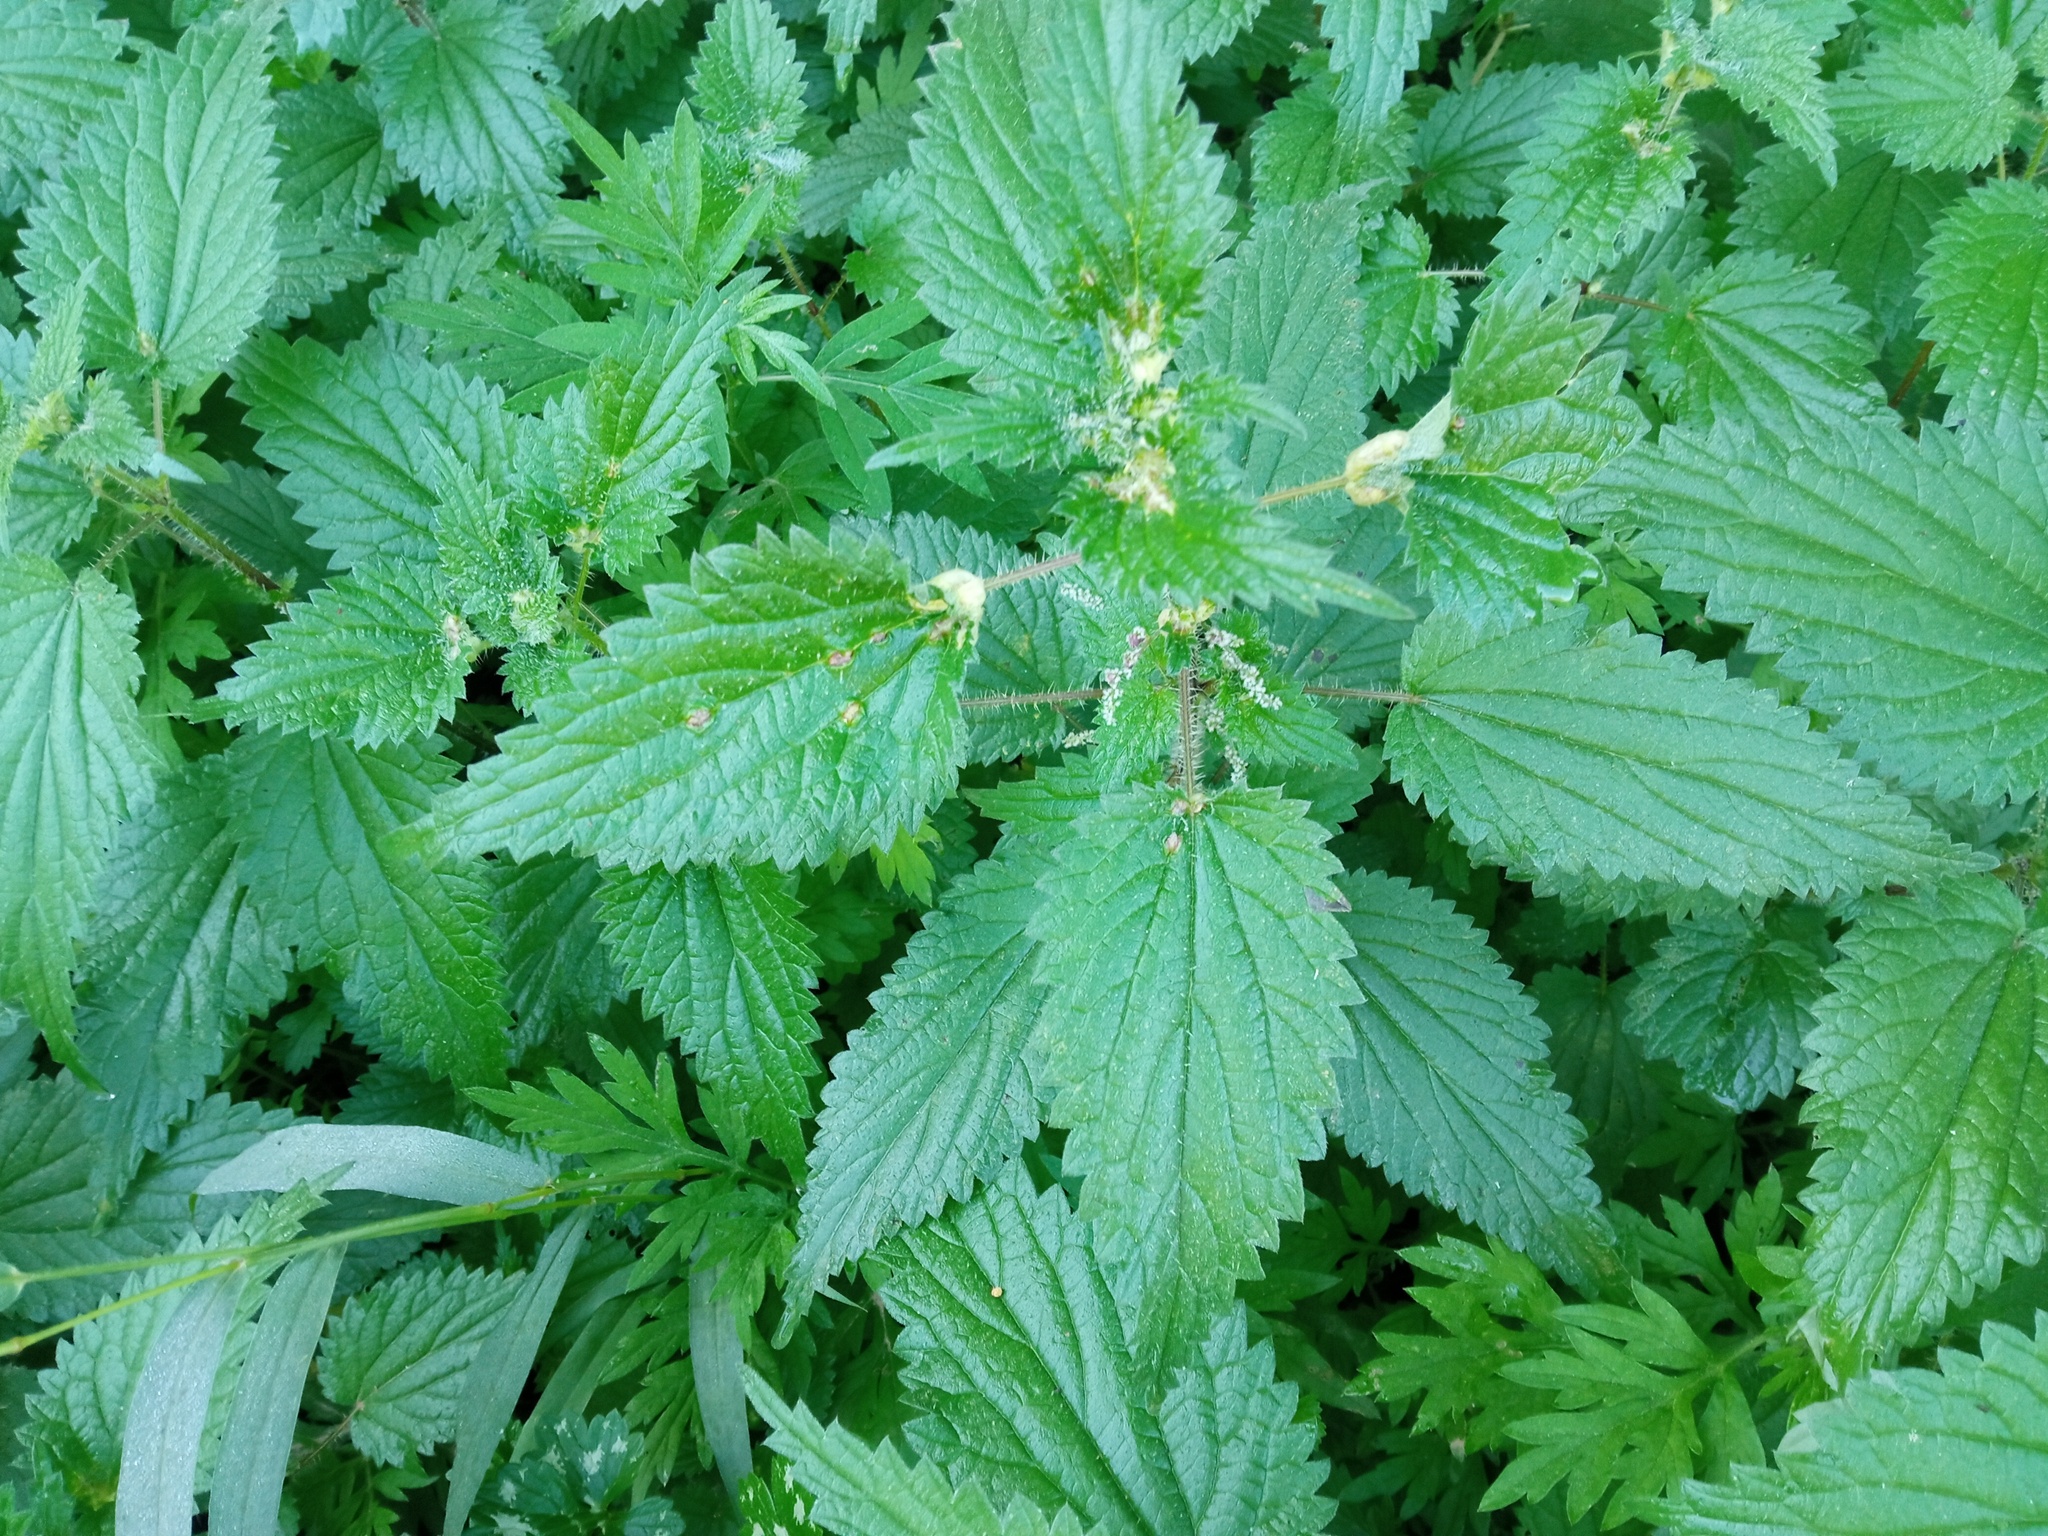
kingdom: Plantae
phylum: Tracheophyta
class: Magnoliopsida
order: Rosales
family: Urticaceae
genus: Urtica
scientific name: Urtica dioica
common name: Common nettle
